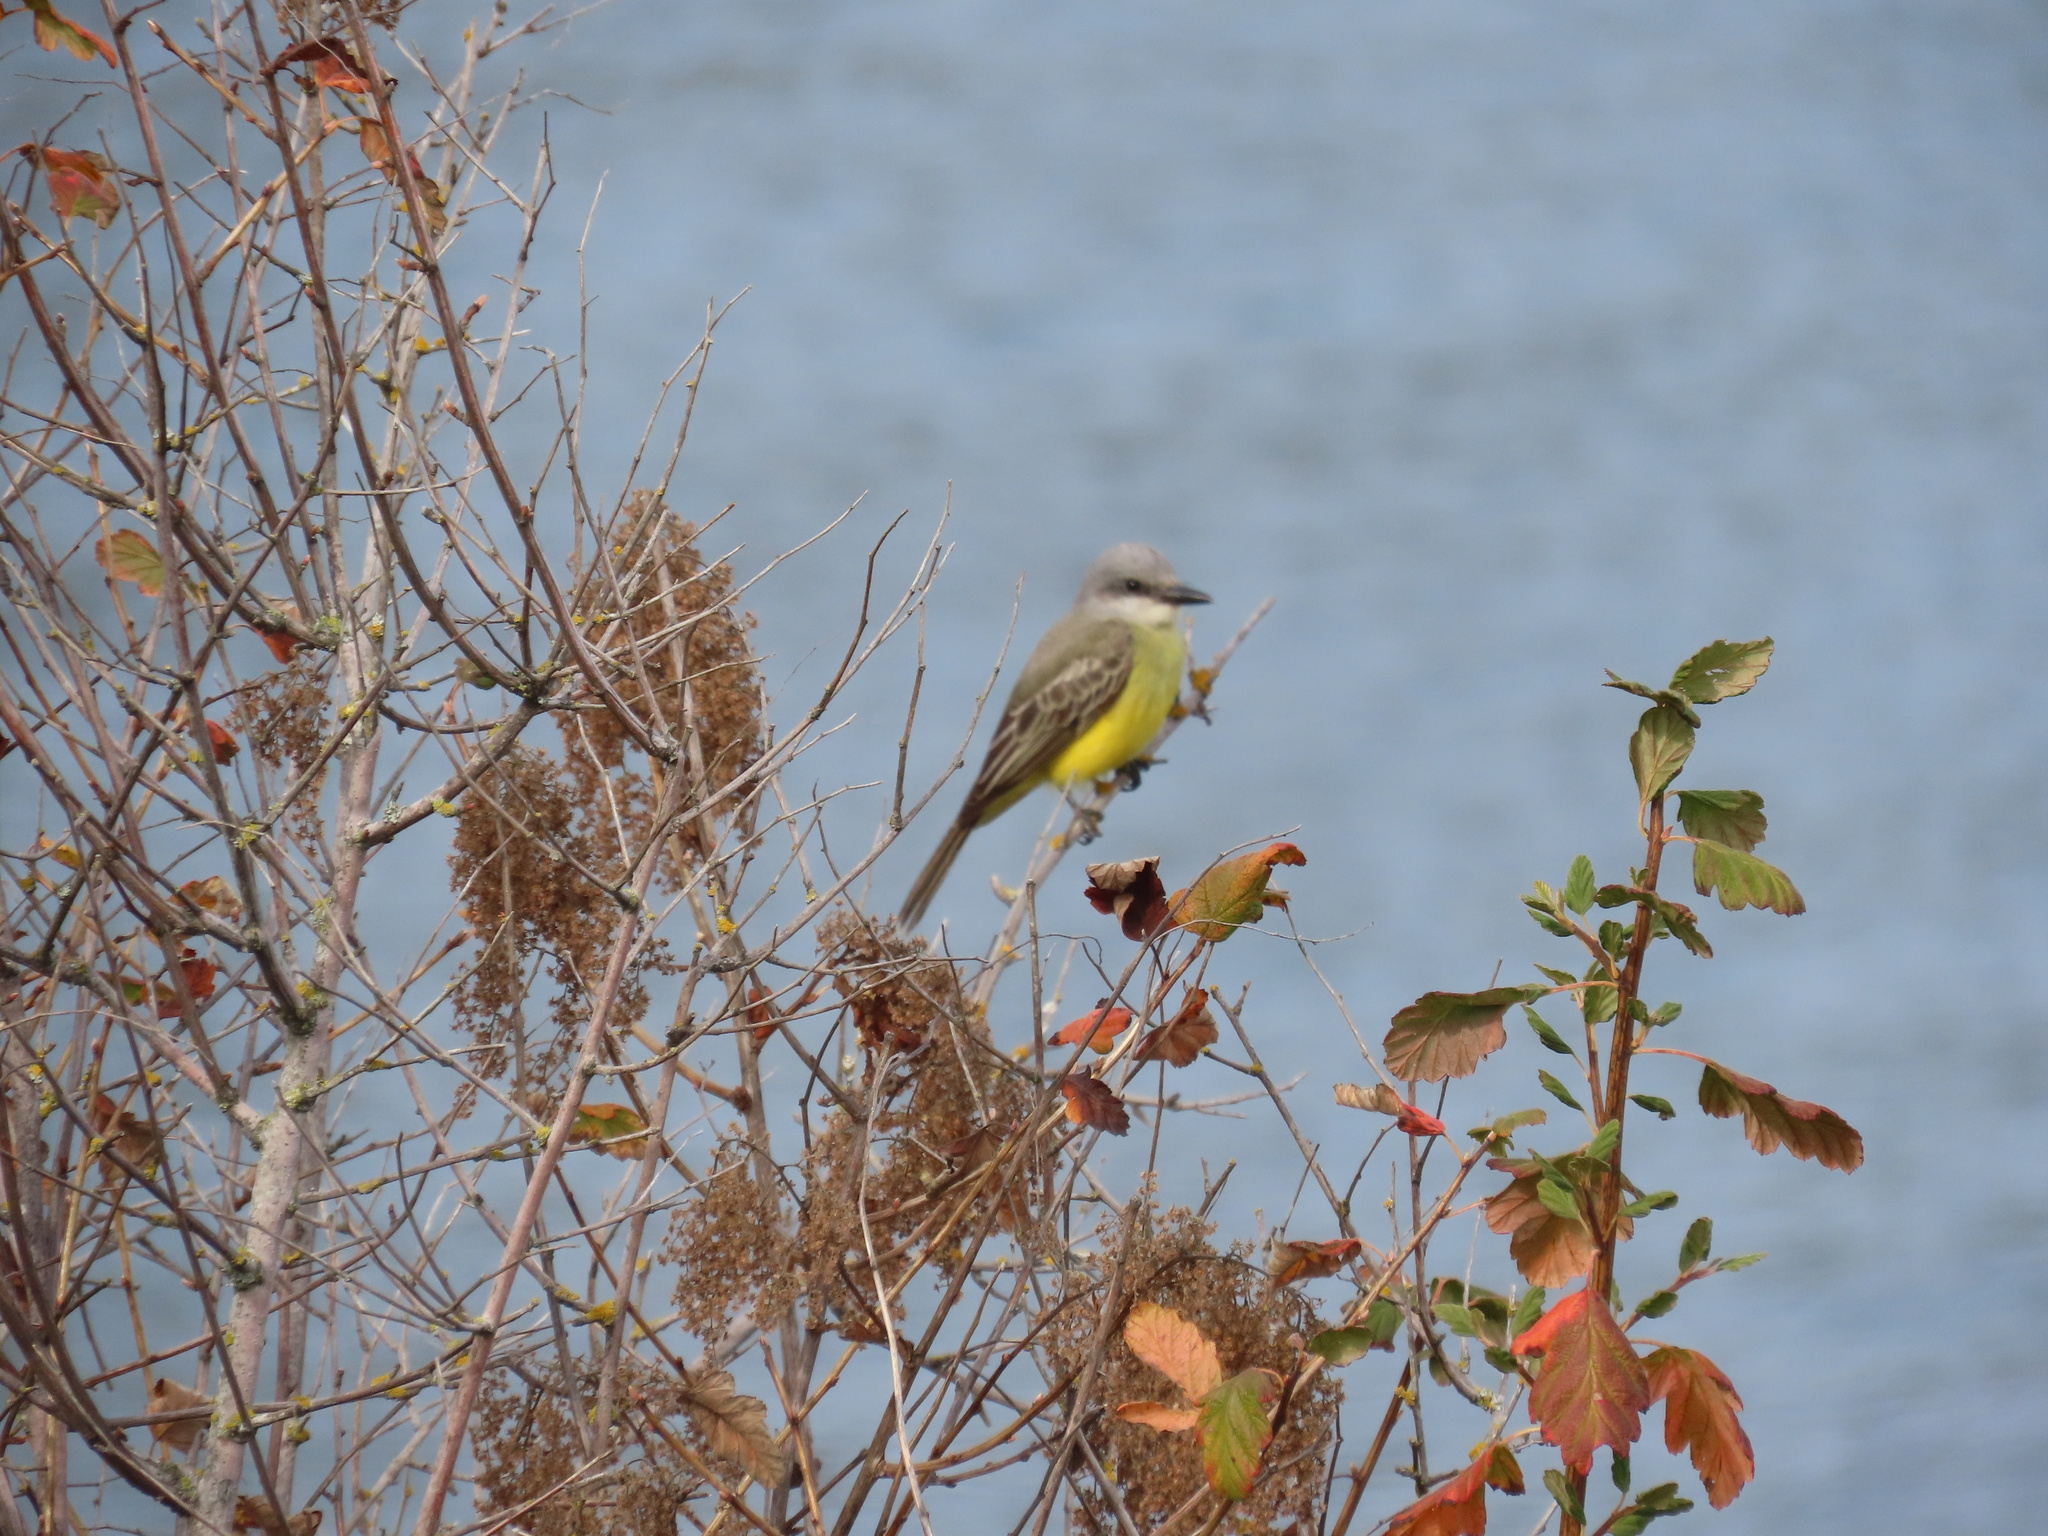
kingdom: Animalia
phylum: Chordata
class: Aves
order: Passeriformes
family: Tyrannidae
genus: Tyrannus
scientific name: Tyrannus melancholicus
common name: Tropical kingbird
